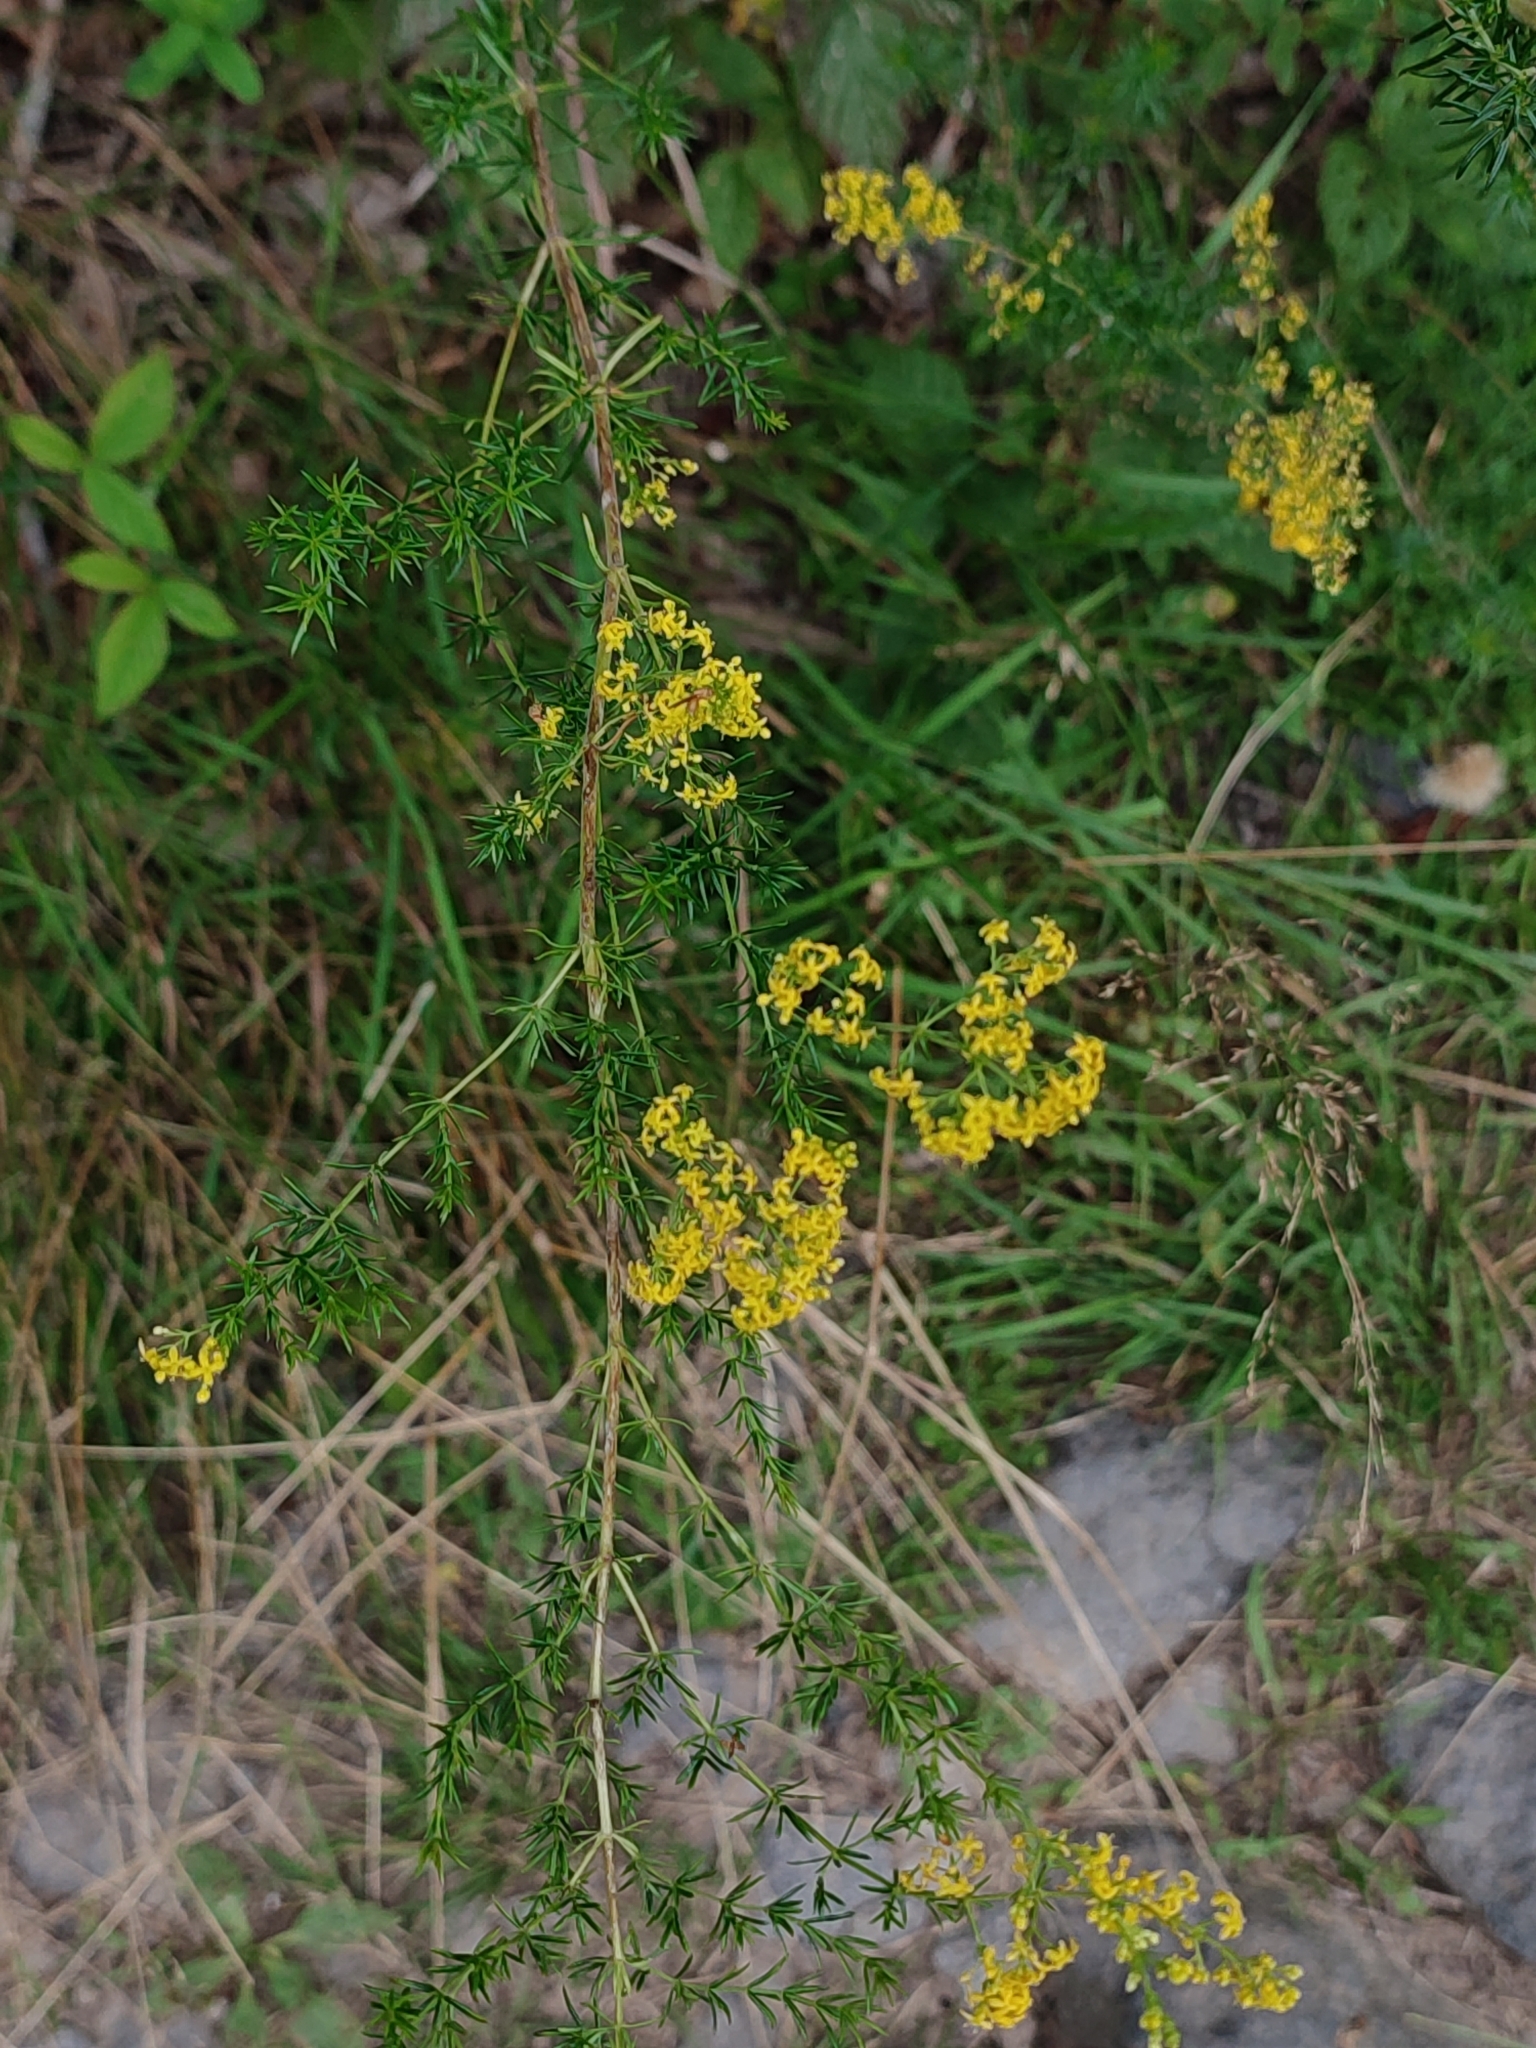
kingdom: Plantae
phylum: Tracheophyta
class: Magnoliopsida
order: Gentianales
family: Rubiaceae
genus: Galium
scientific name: Galium verum
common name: Lady's bedstraw
